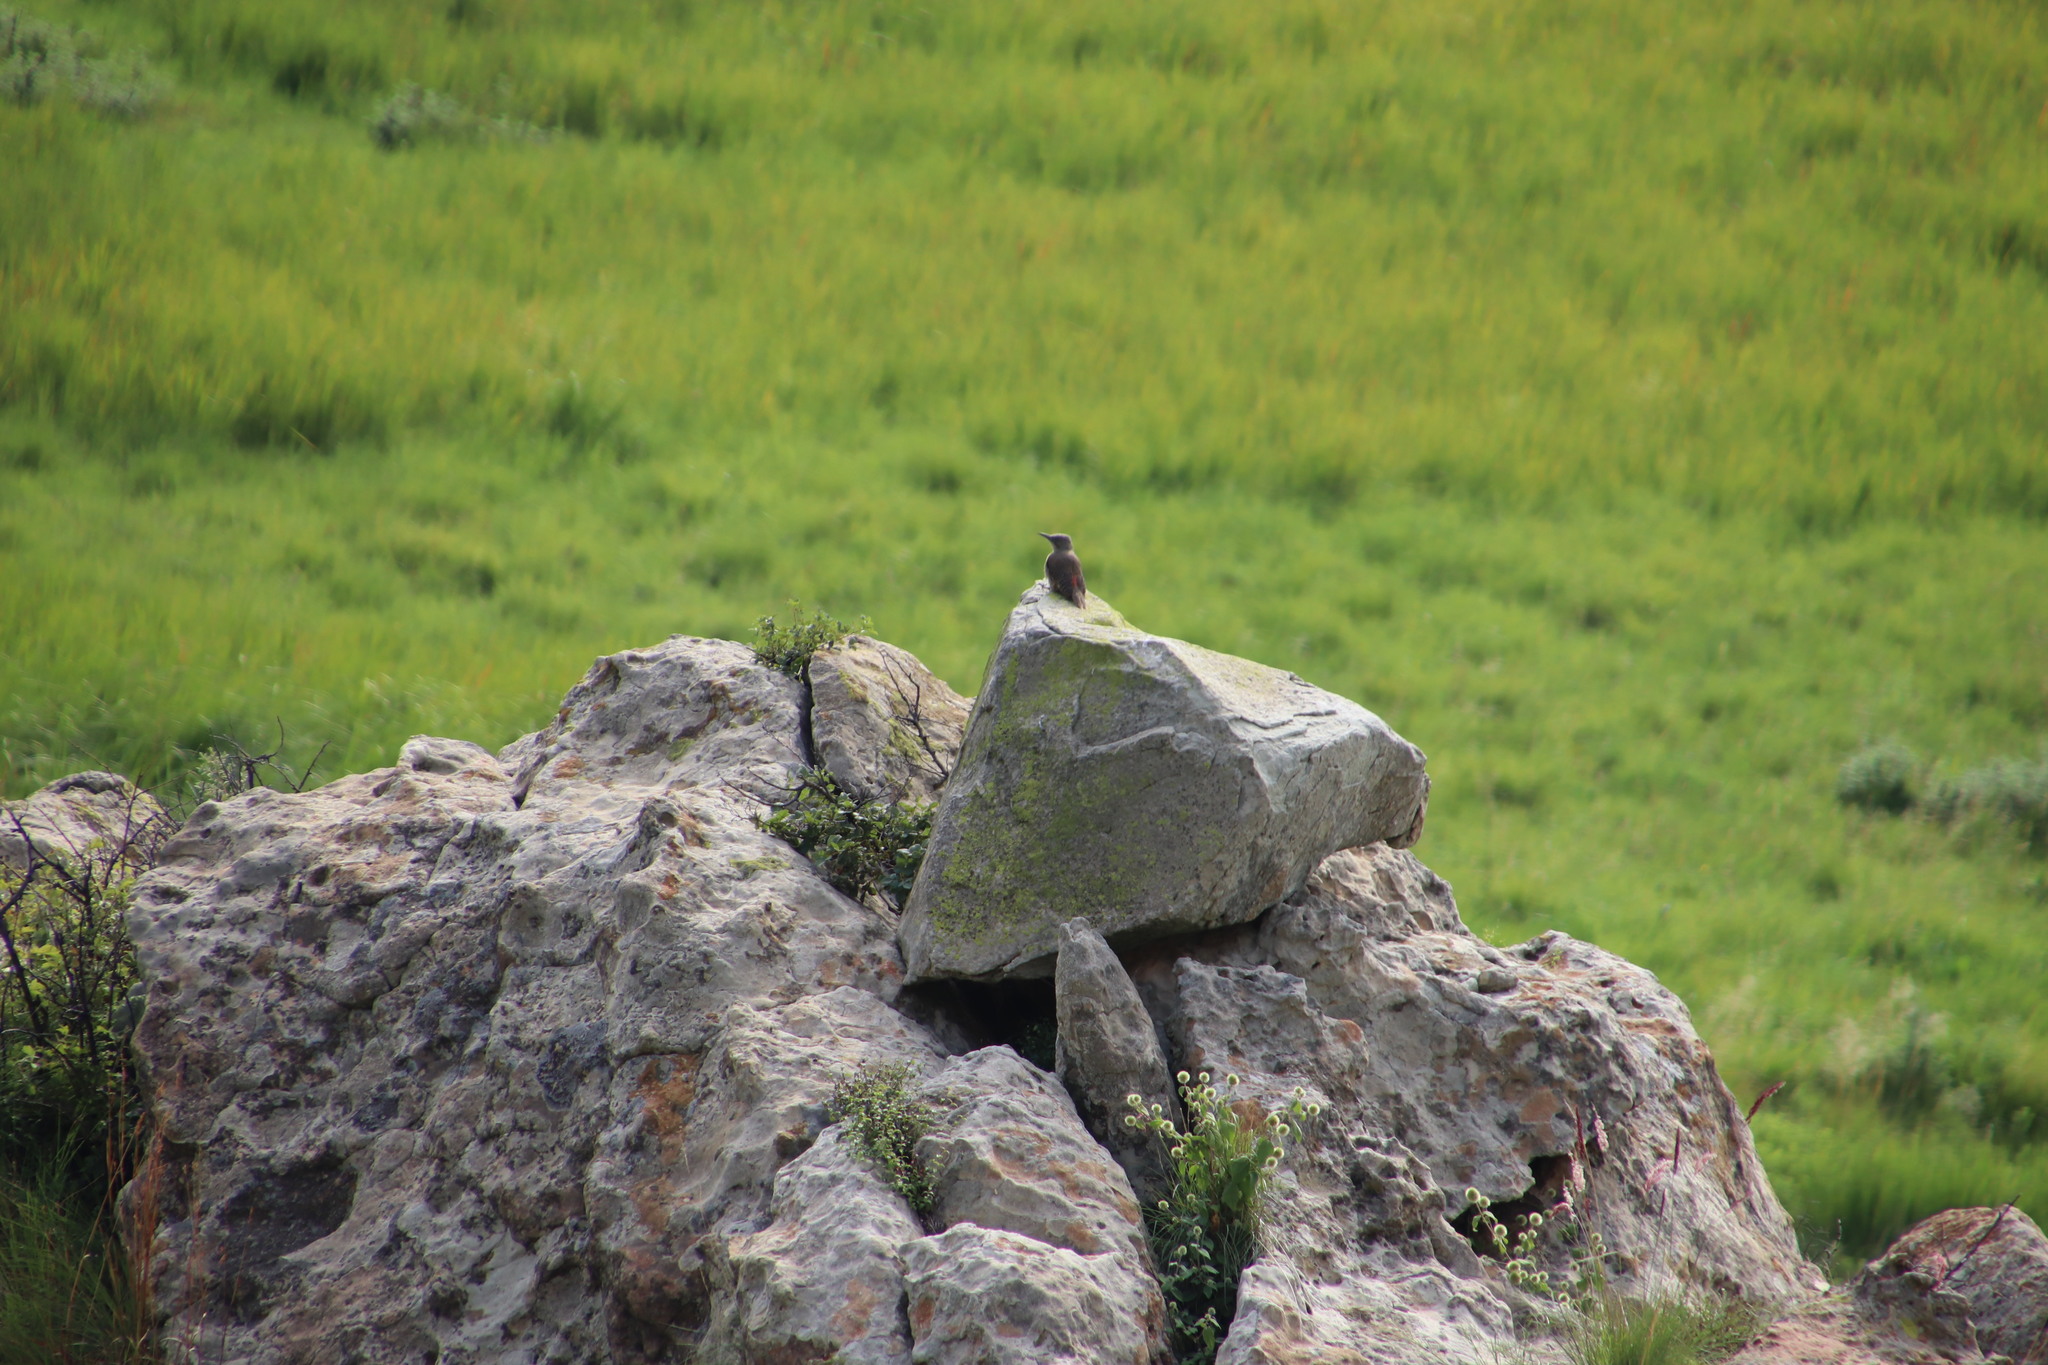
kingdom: Animalia
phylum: Chordata
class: Aves
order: Piciformes
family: Picidae
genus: Geocolaptes
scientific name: Geocolaptes olivaceus
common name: Ground woodpecker
